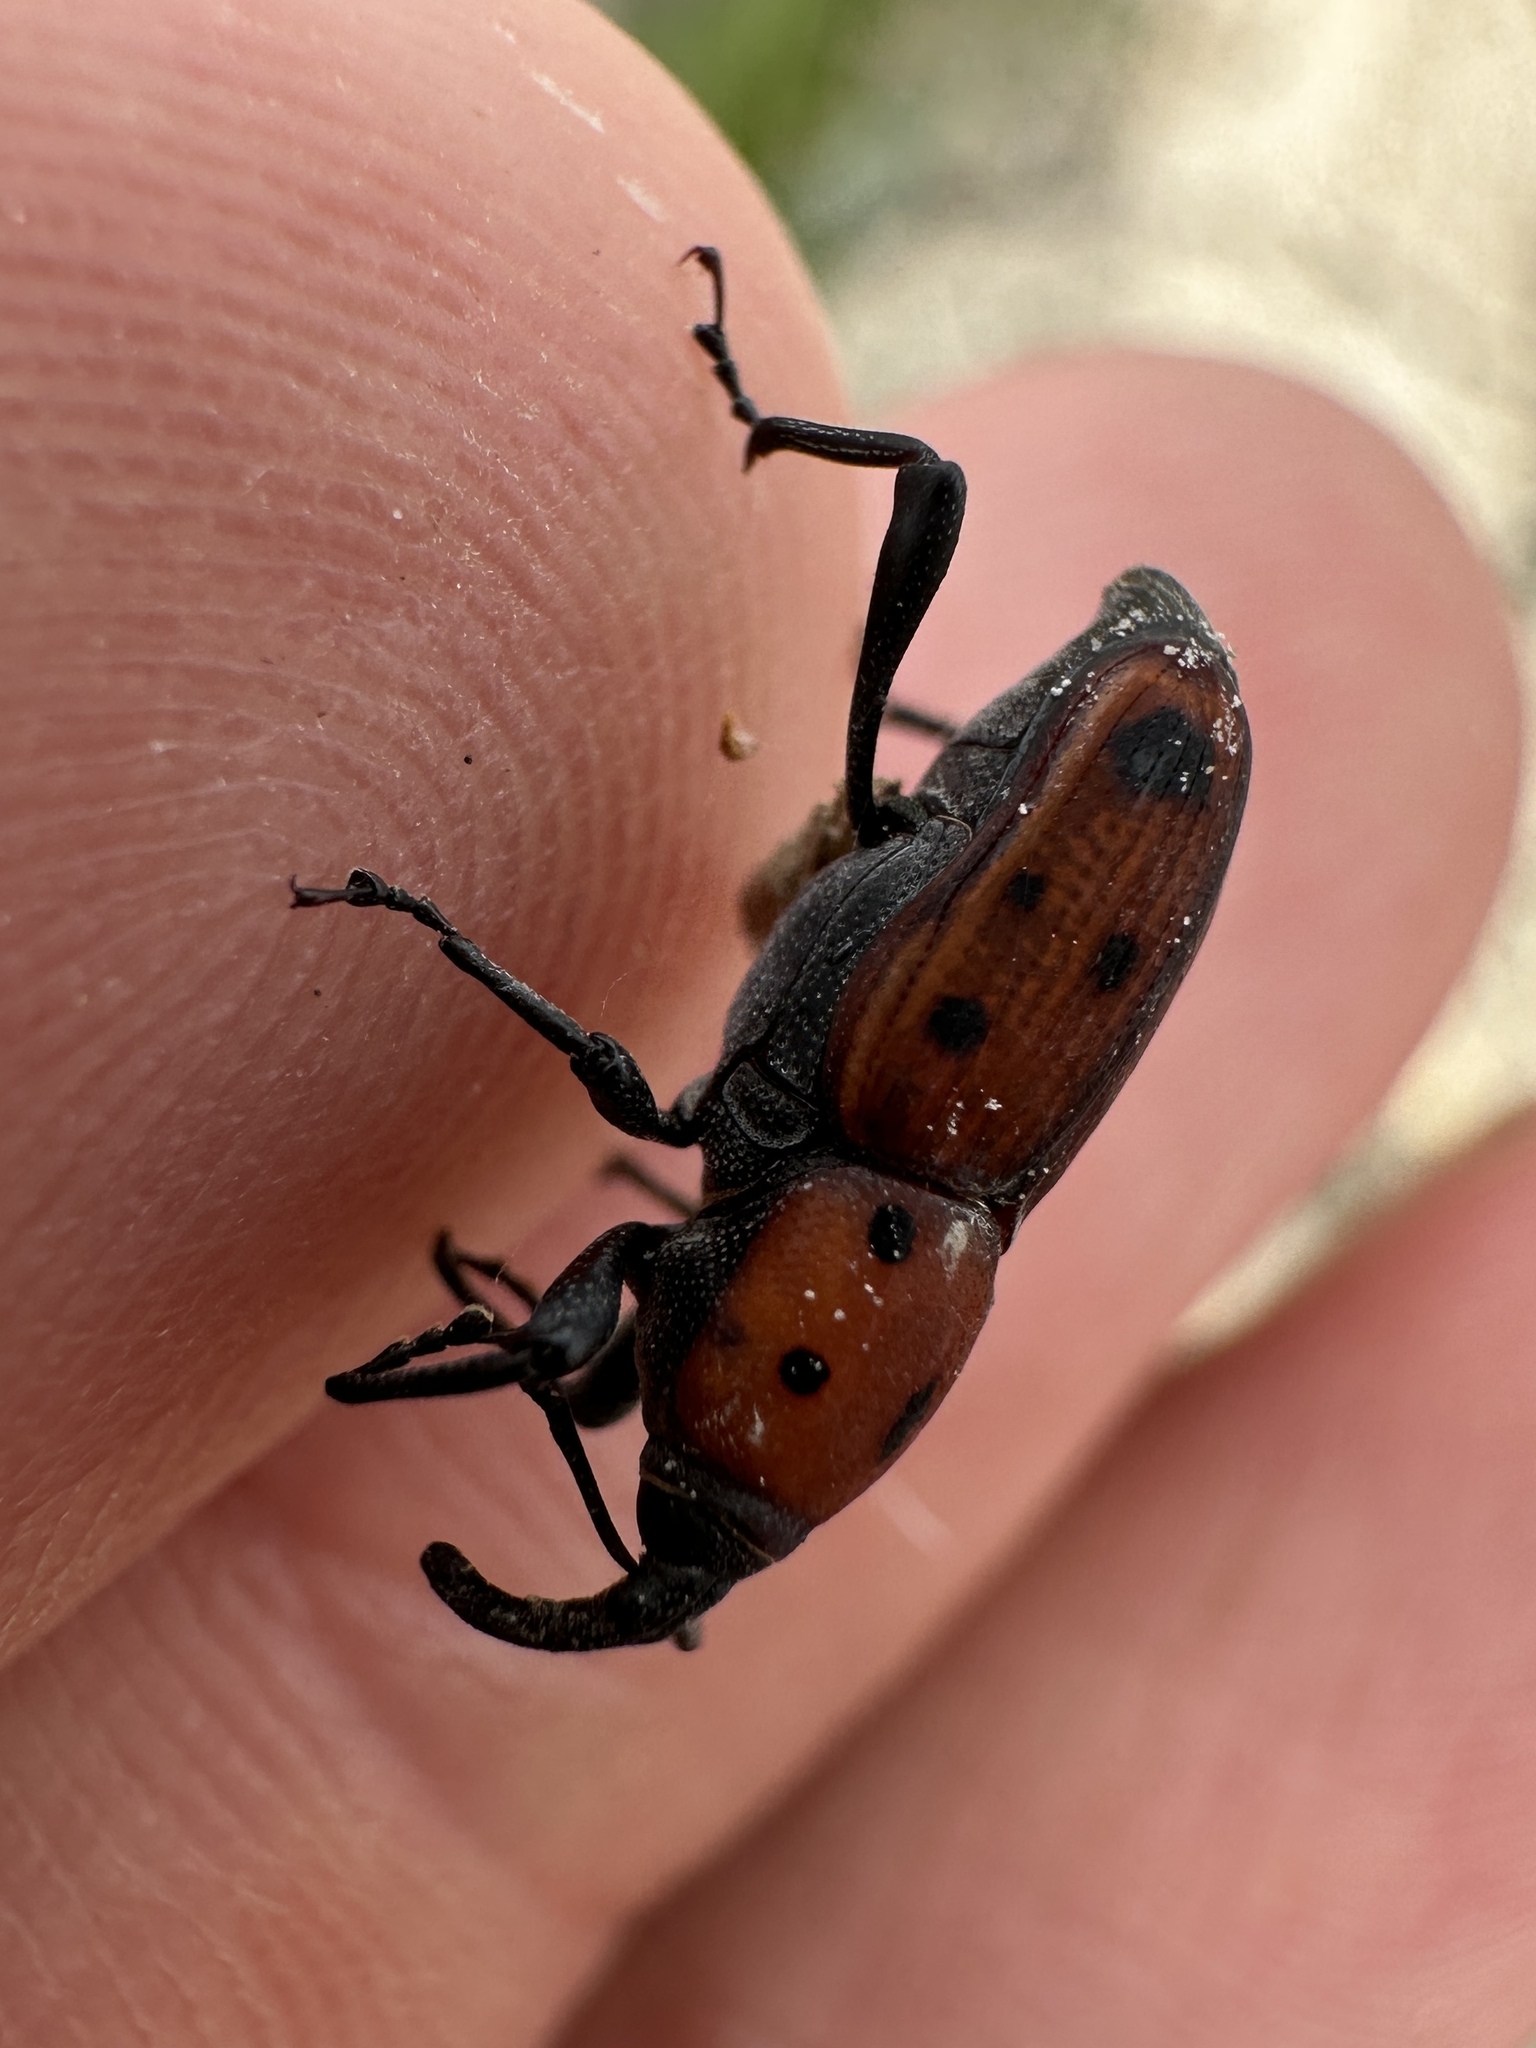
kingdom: Animalia
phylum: Arthropoda
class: Insecta
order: Coleoptera
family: Dryophthoridae
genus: Rhodobaenus
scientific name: Rhodobaenus tredecimpunctatus
